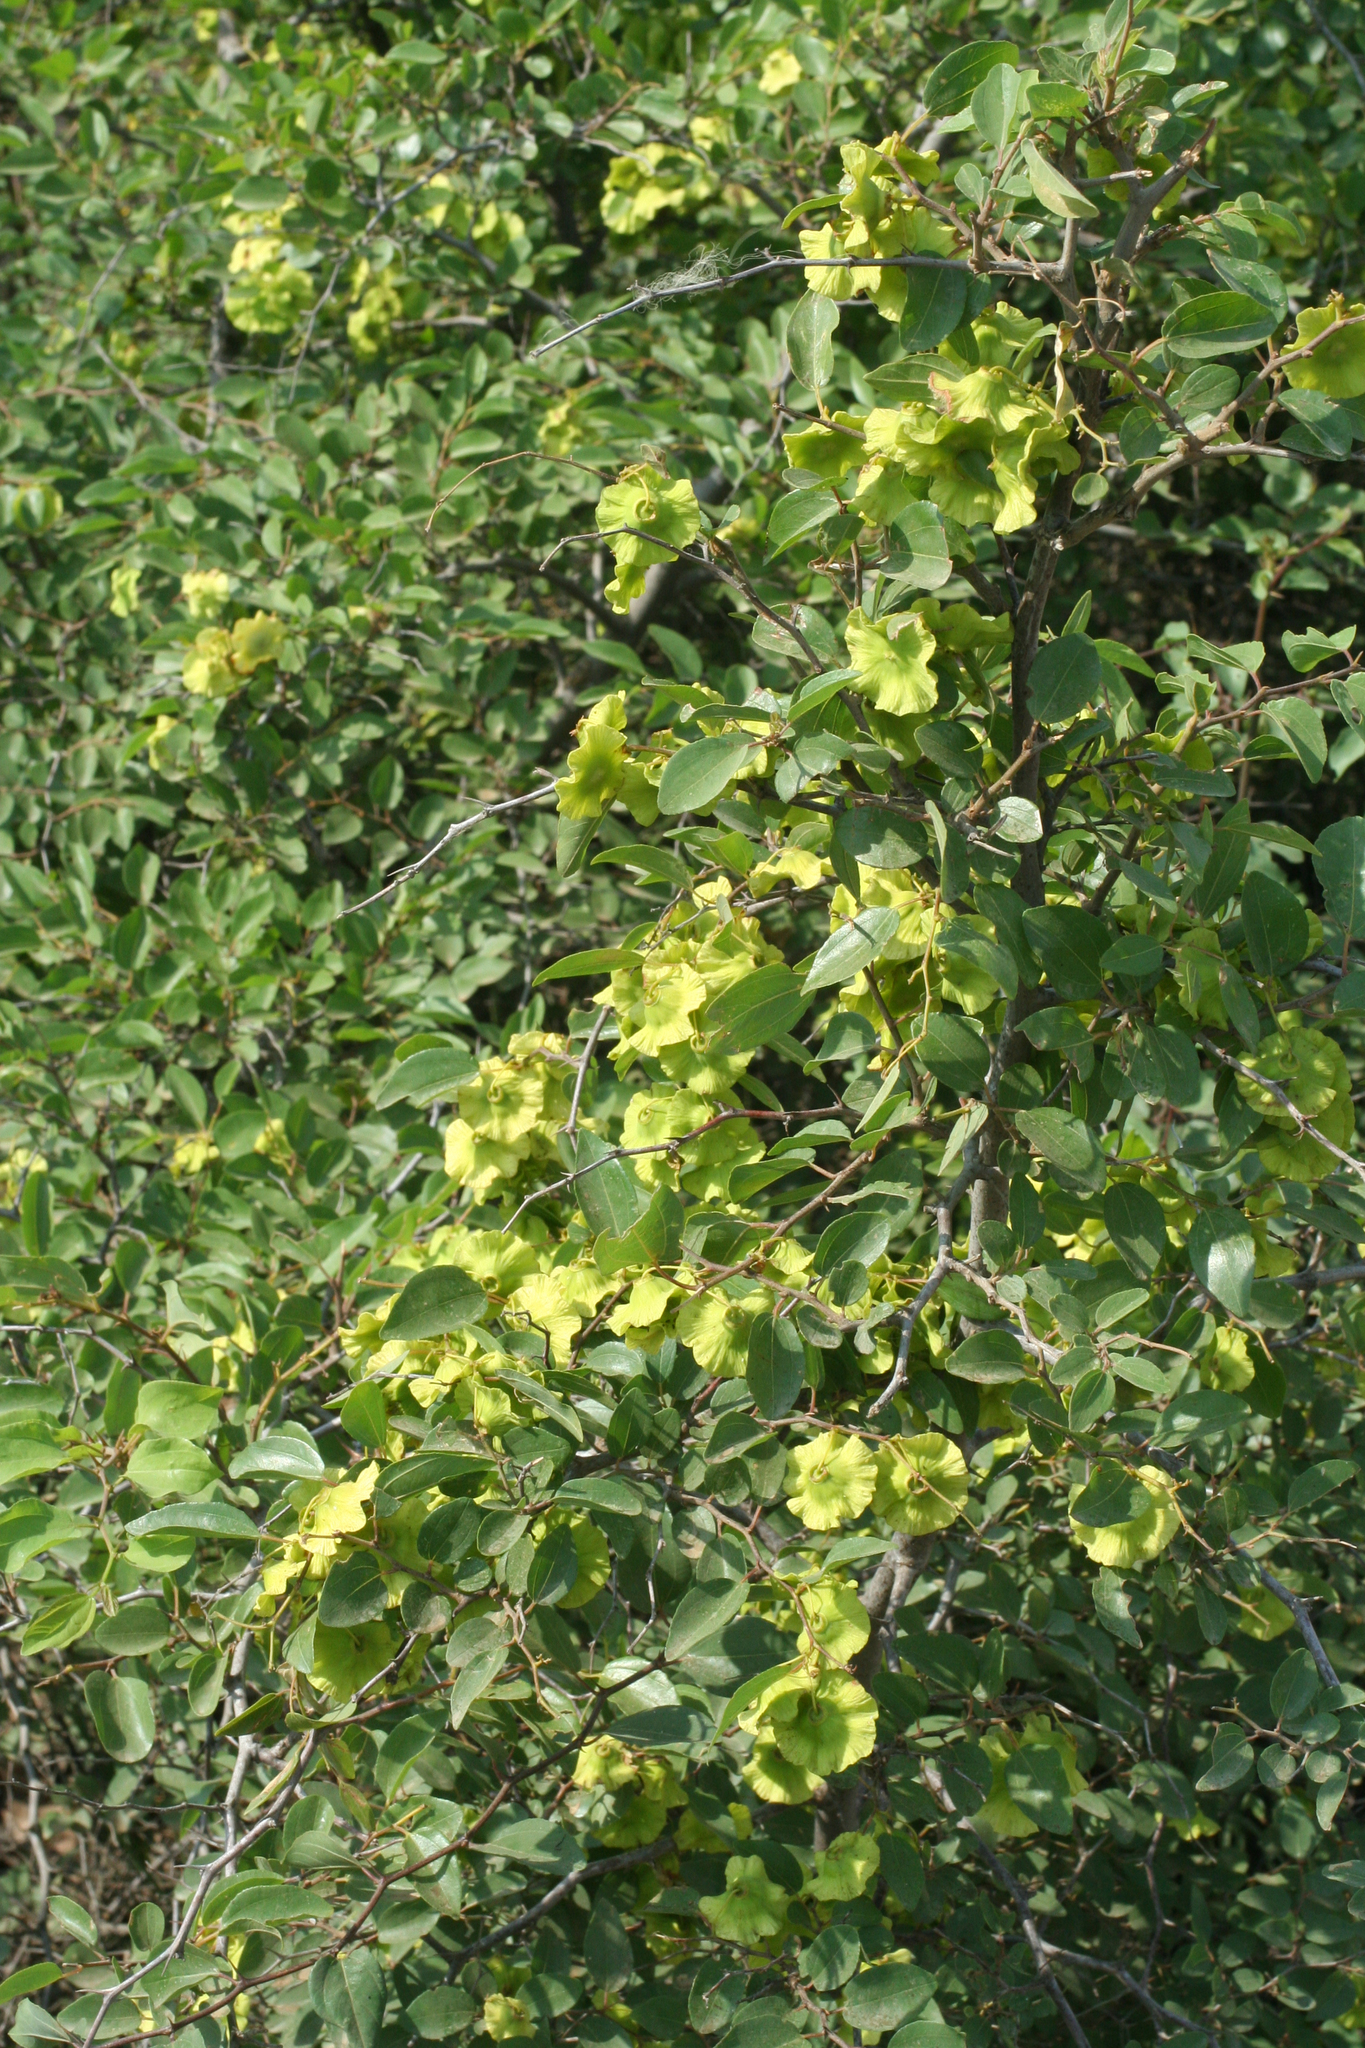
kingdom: Plantae
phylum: Tracheophyta
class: Magnoliopsida
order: Rosales
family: Rhamnaceae
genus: Paliurus
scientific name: Paliurus spina-christi
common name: Jeruselem thorn
